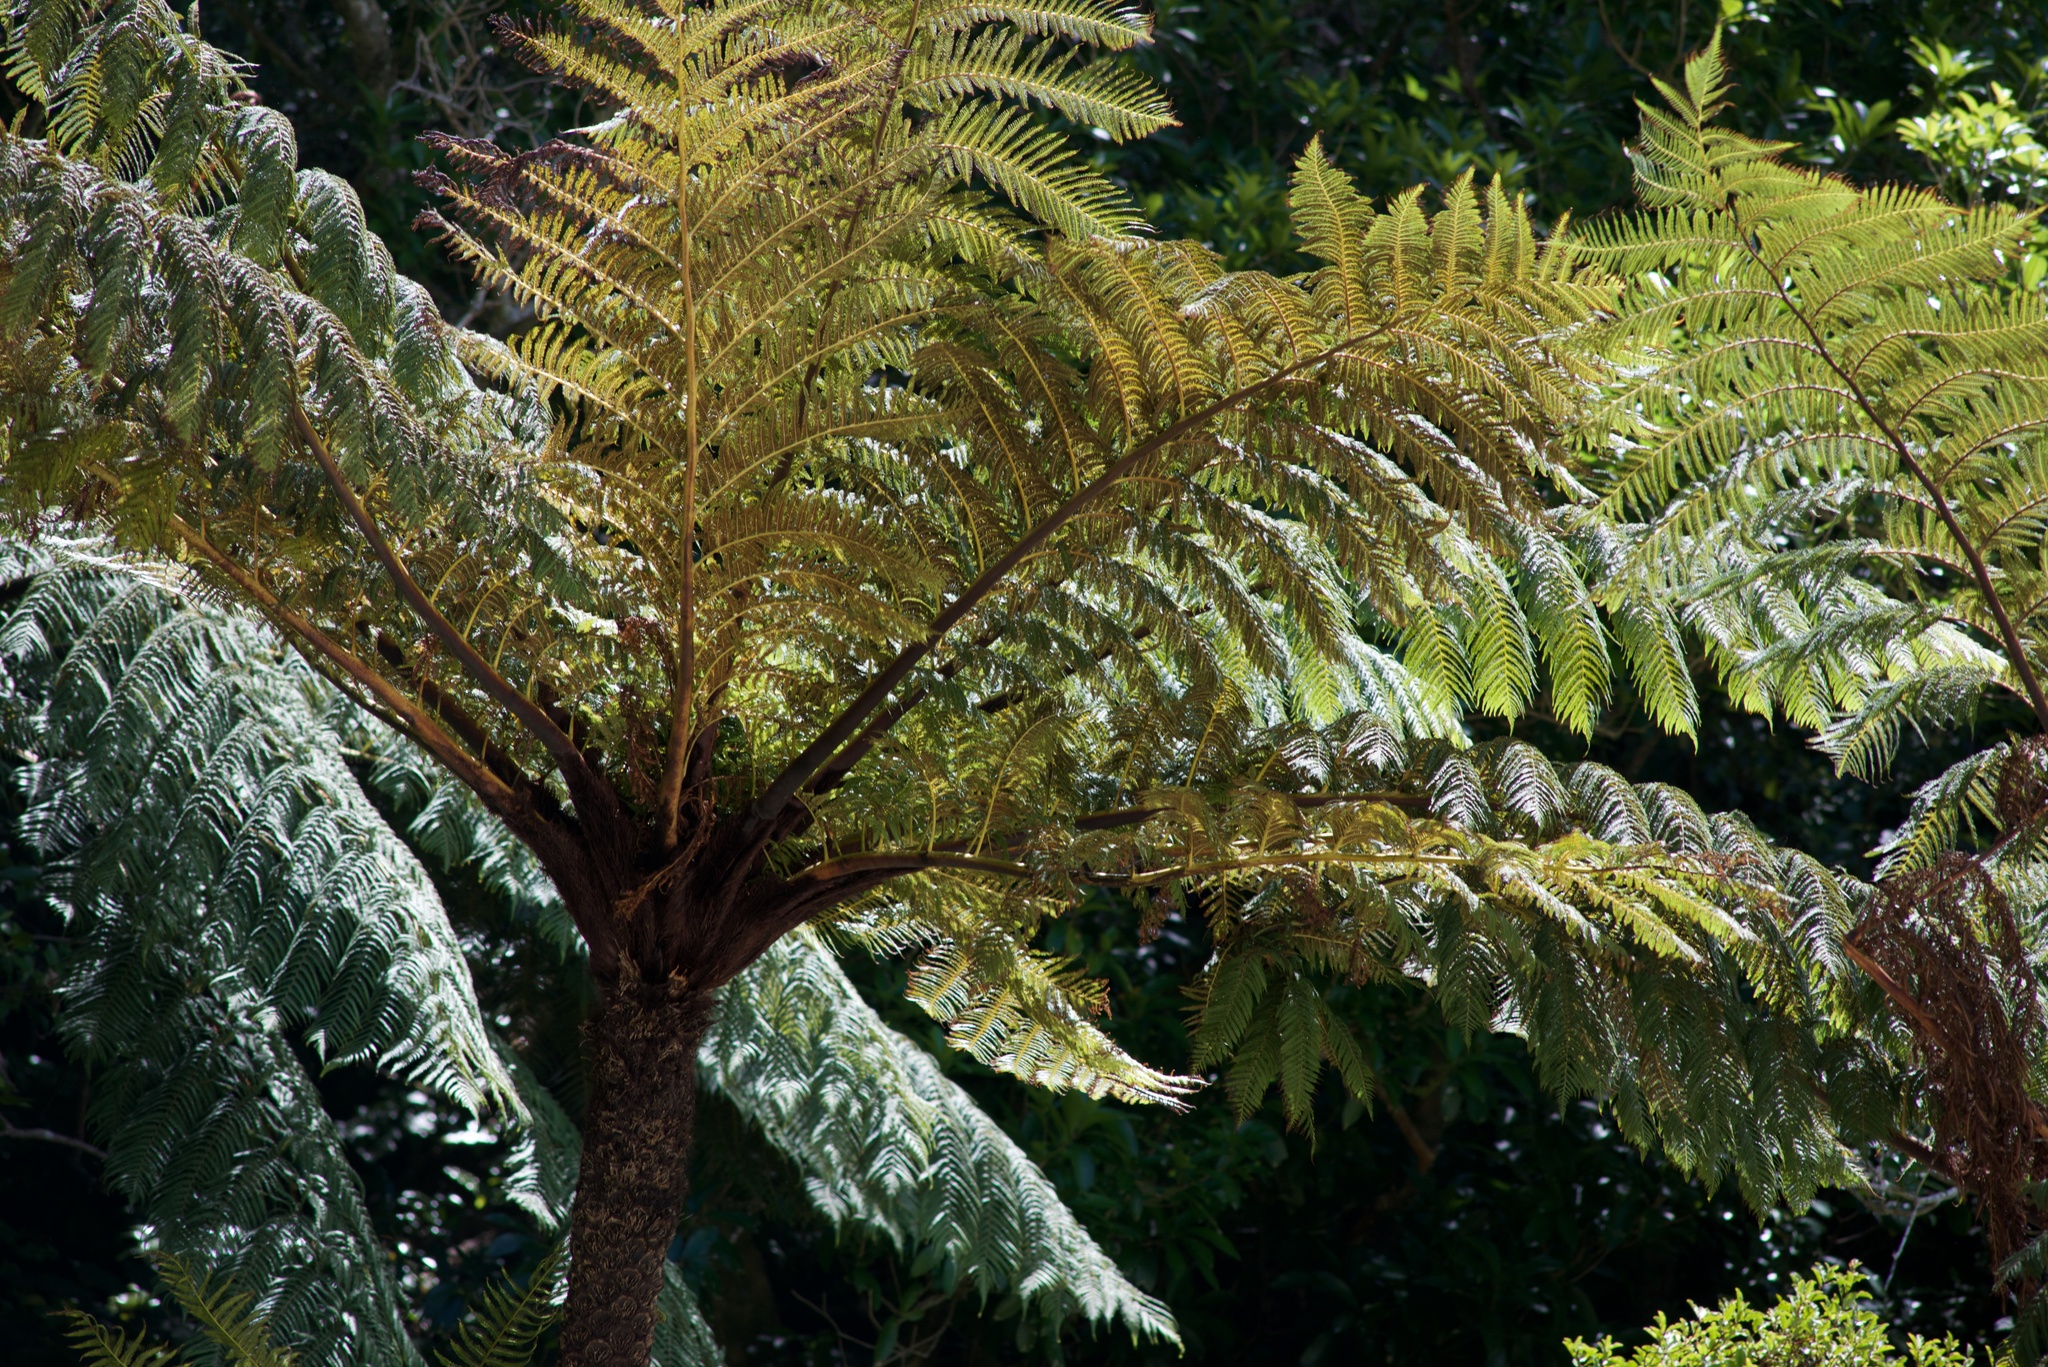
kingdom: Plantae
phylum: Tracheophyta
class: Polypodiopsida
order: Cyatheales
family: Cyatheaceae
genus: Sphaeropteris
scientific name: Sphaeropteris medullaris
